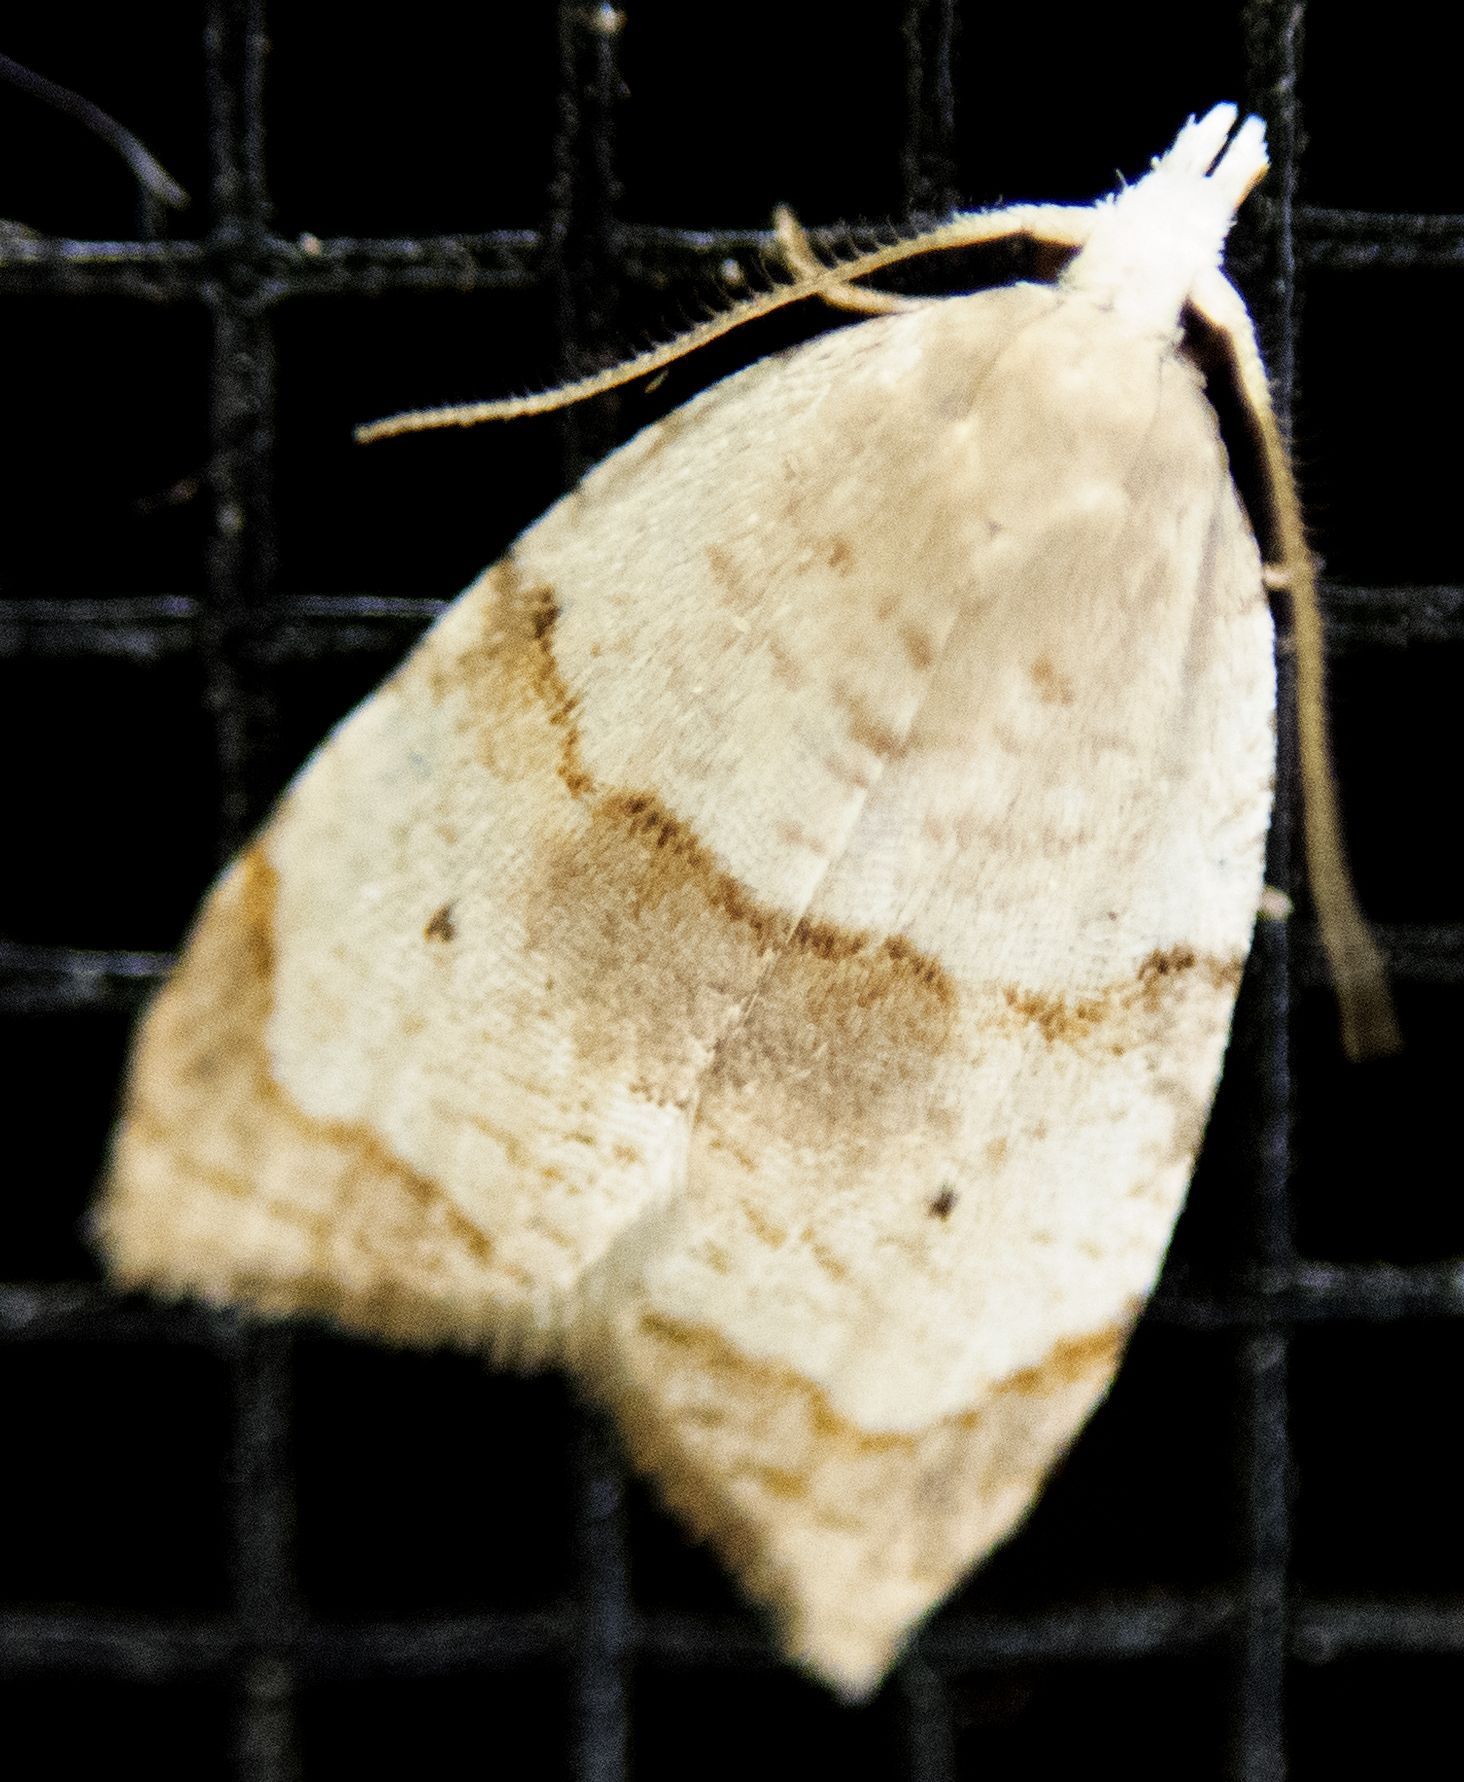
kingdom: Animalia
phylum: Arthropoda
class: Insecta
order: Lepidoptera
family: Tortricidae
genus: Coelostathma
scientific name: Coelostathma discopunctana
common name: Batman moth
